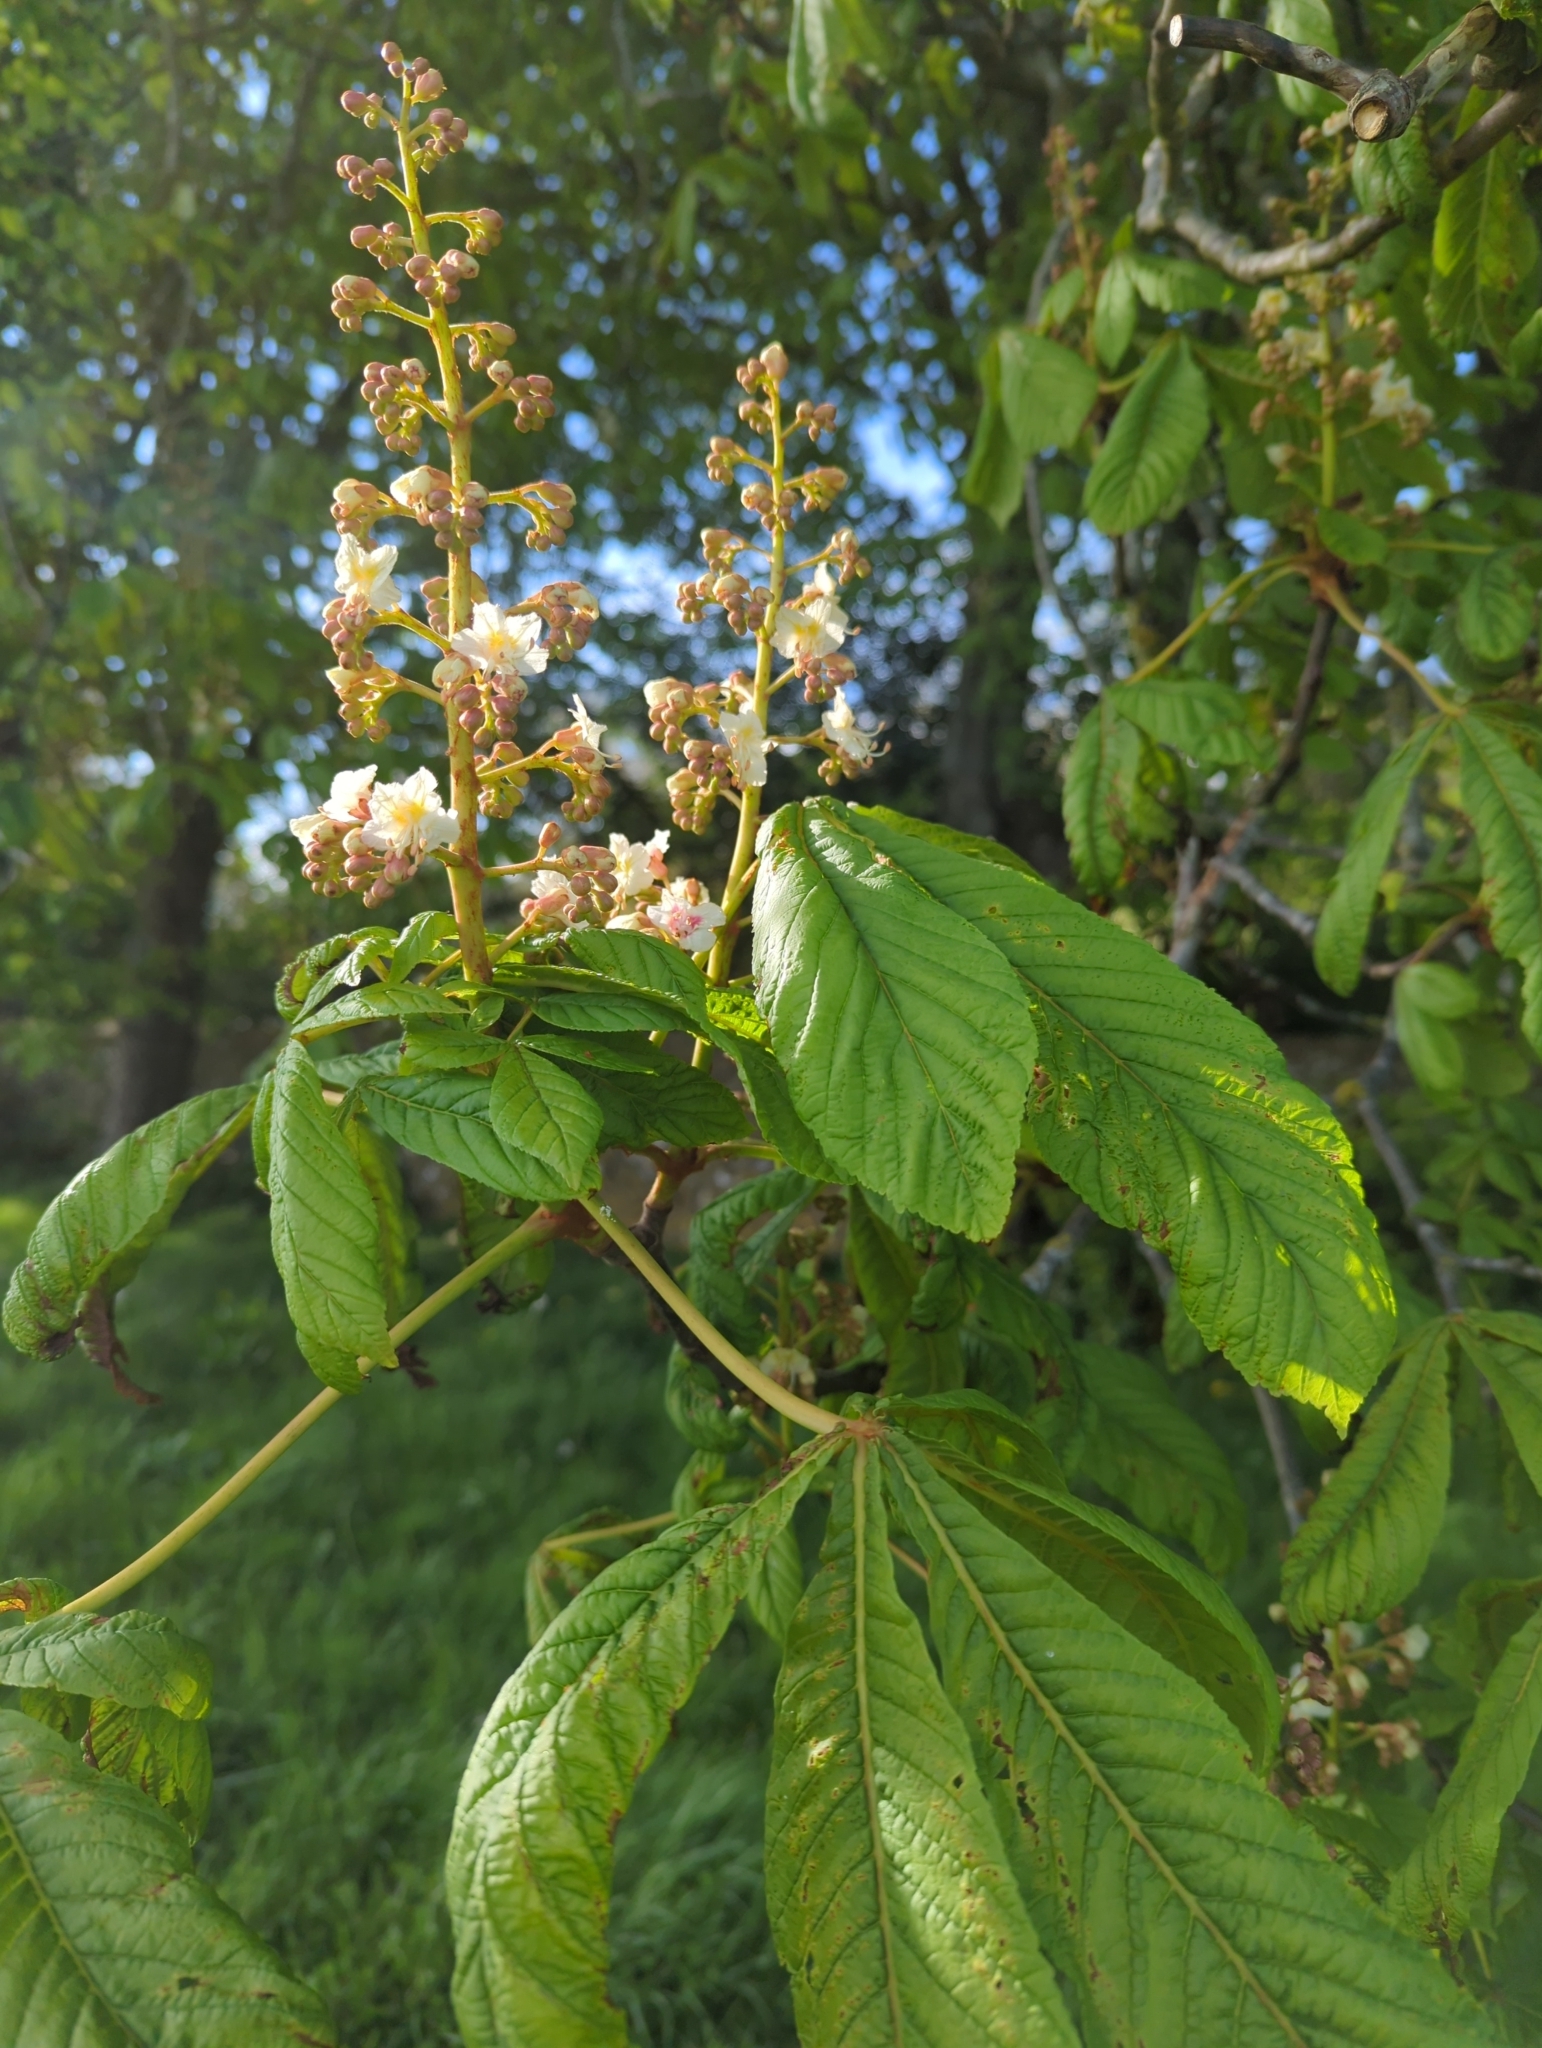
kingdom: Plantae
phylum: Tracheophyta
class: Magnoliopsida
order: Sapindales
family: Sapindaceae
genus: Aesculus
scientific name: Aesculus hippocastanum
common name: Horse-chestnut
